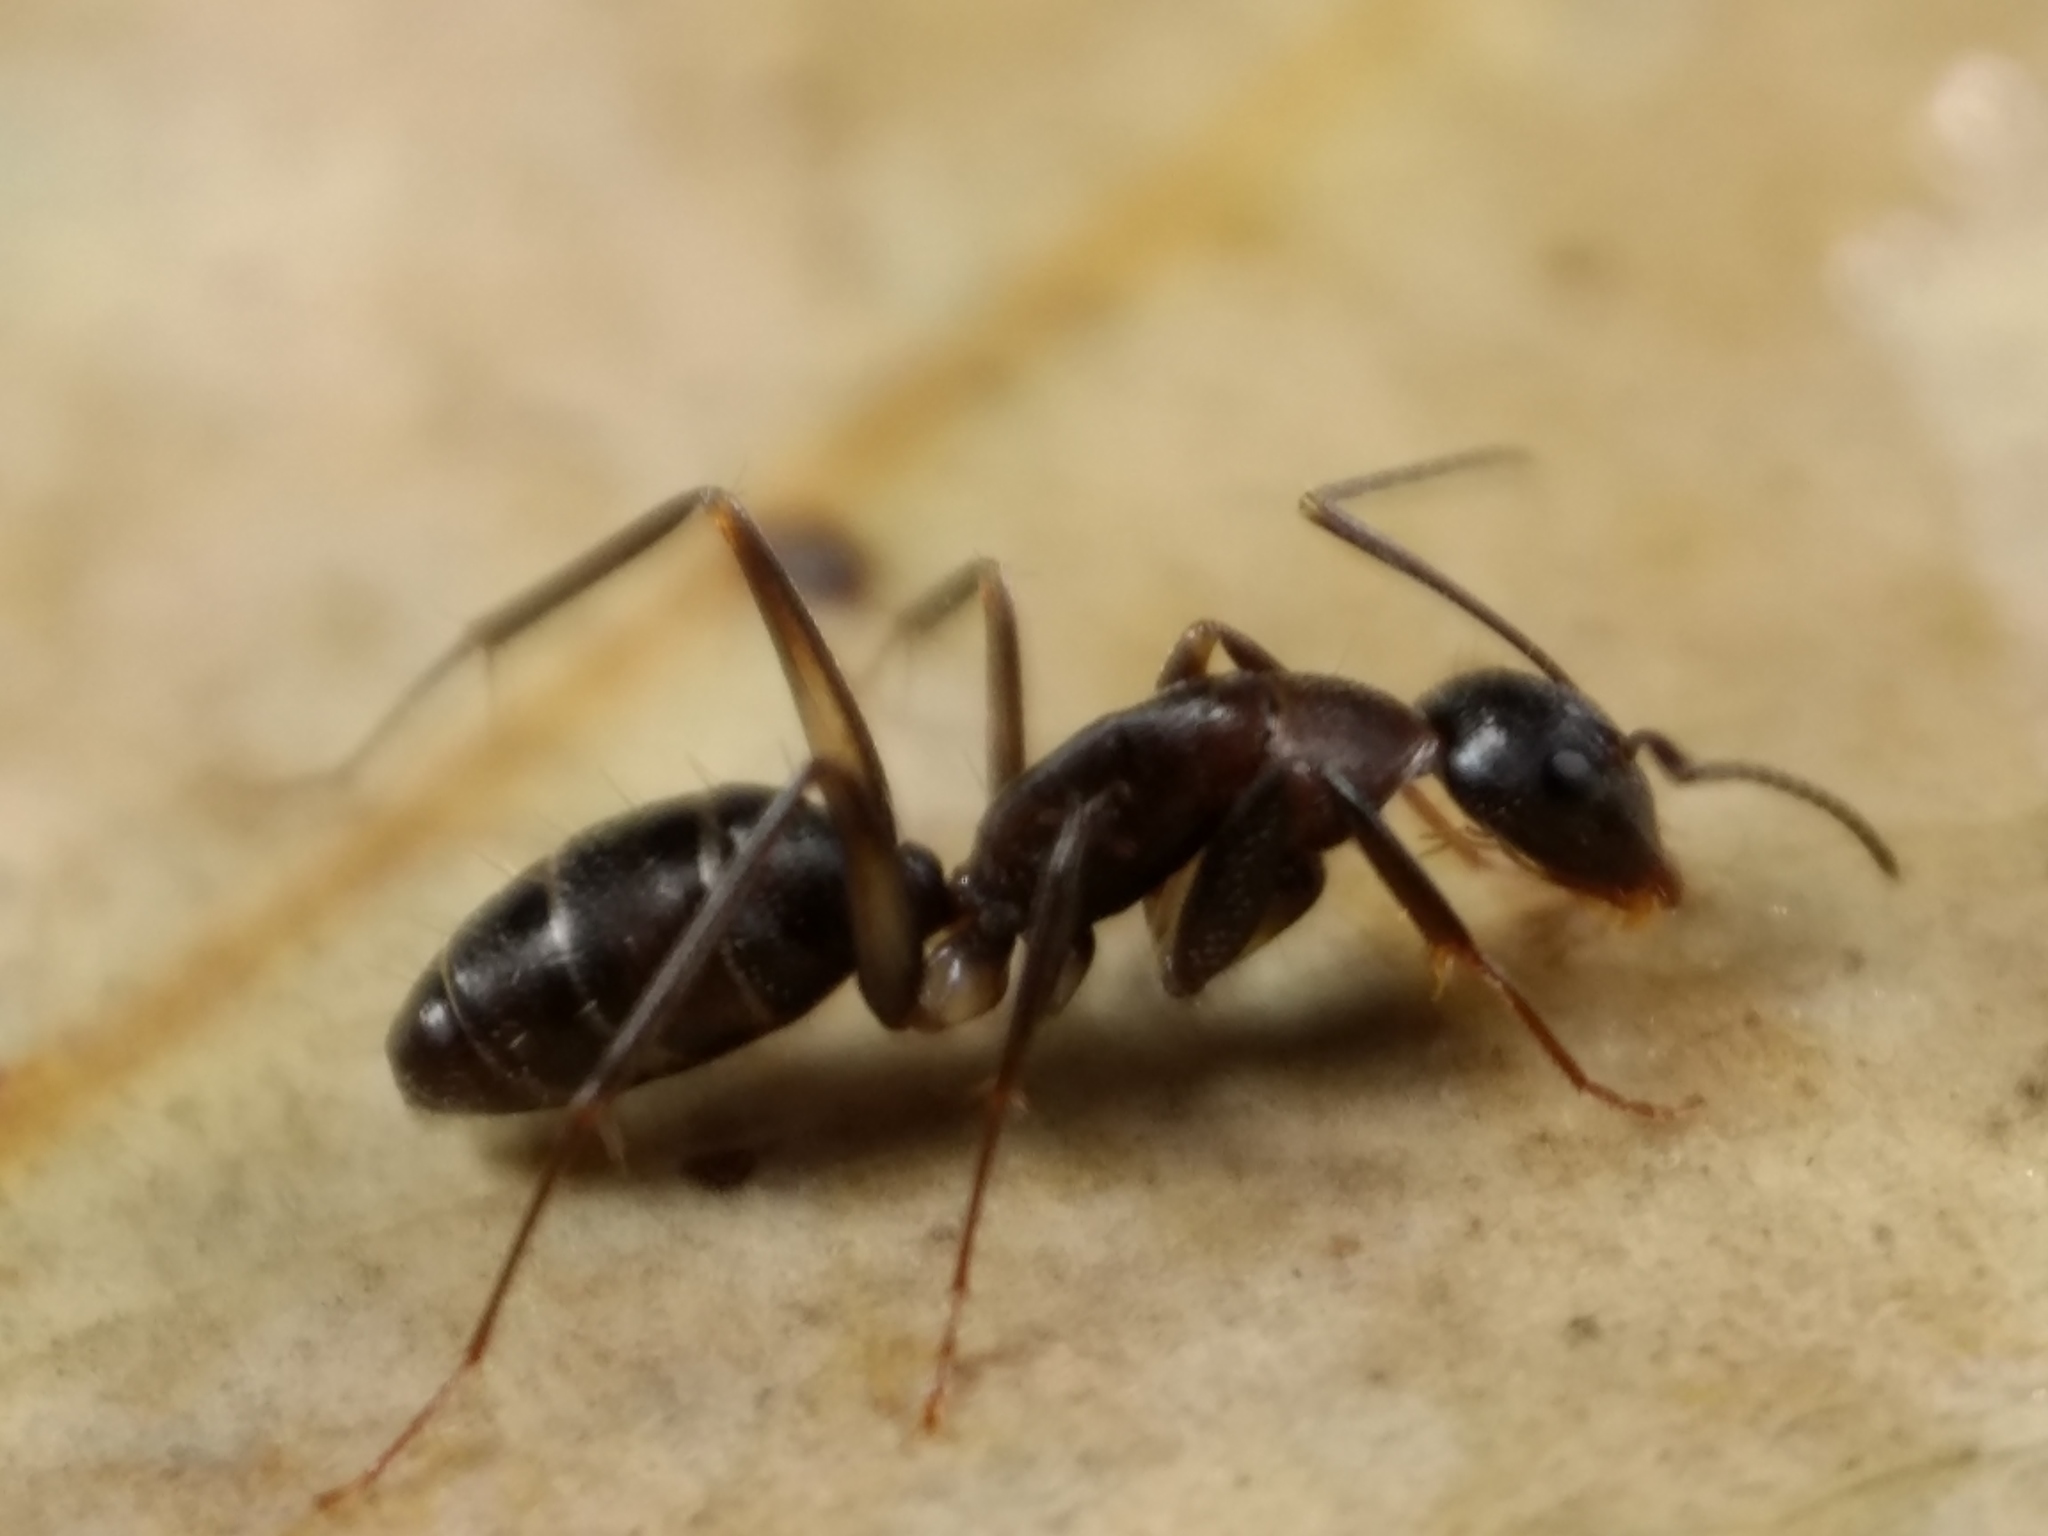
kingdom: Animalia
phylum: Arthropoda
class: Insecta
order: Hymenoptera
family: Formicidae
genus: Camponotus
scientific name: Camponotus lividicoxis
